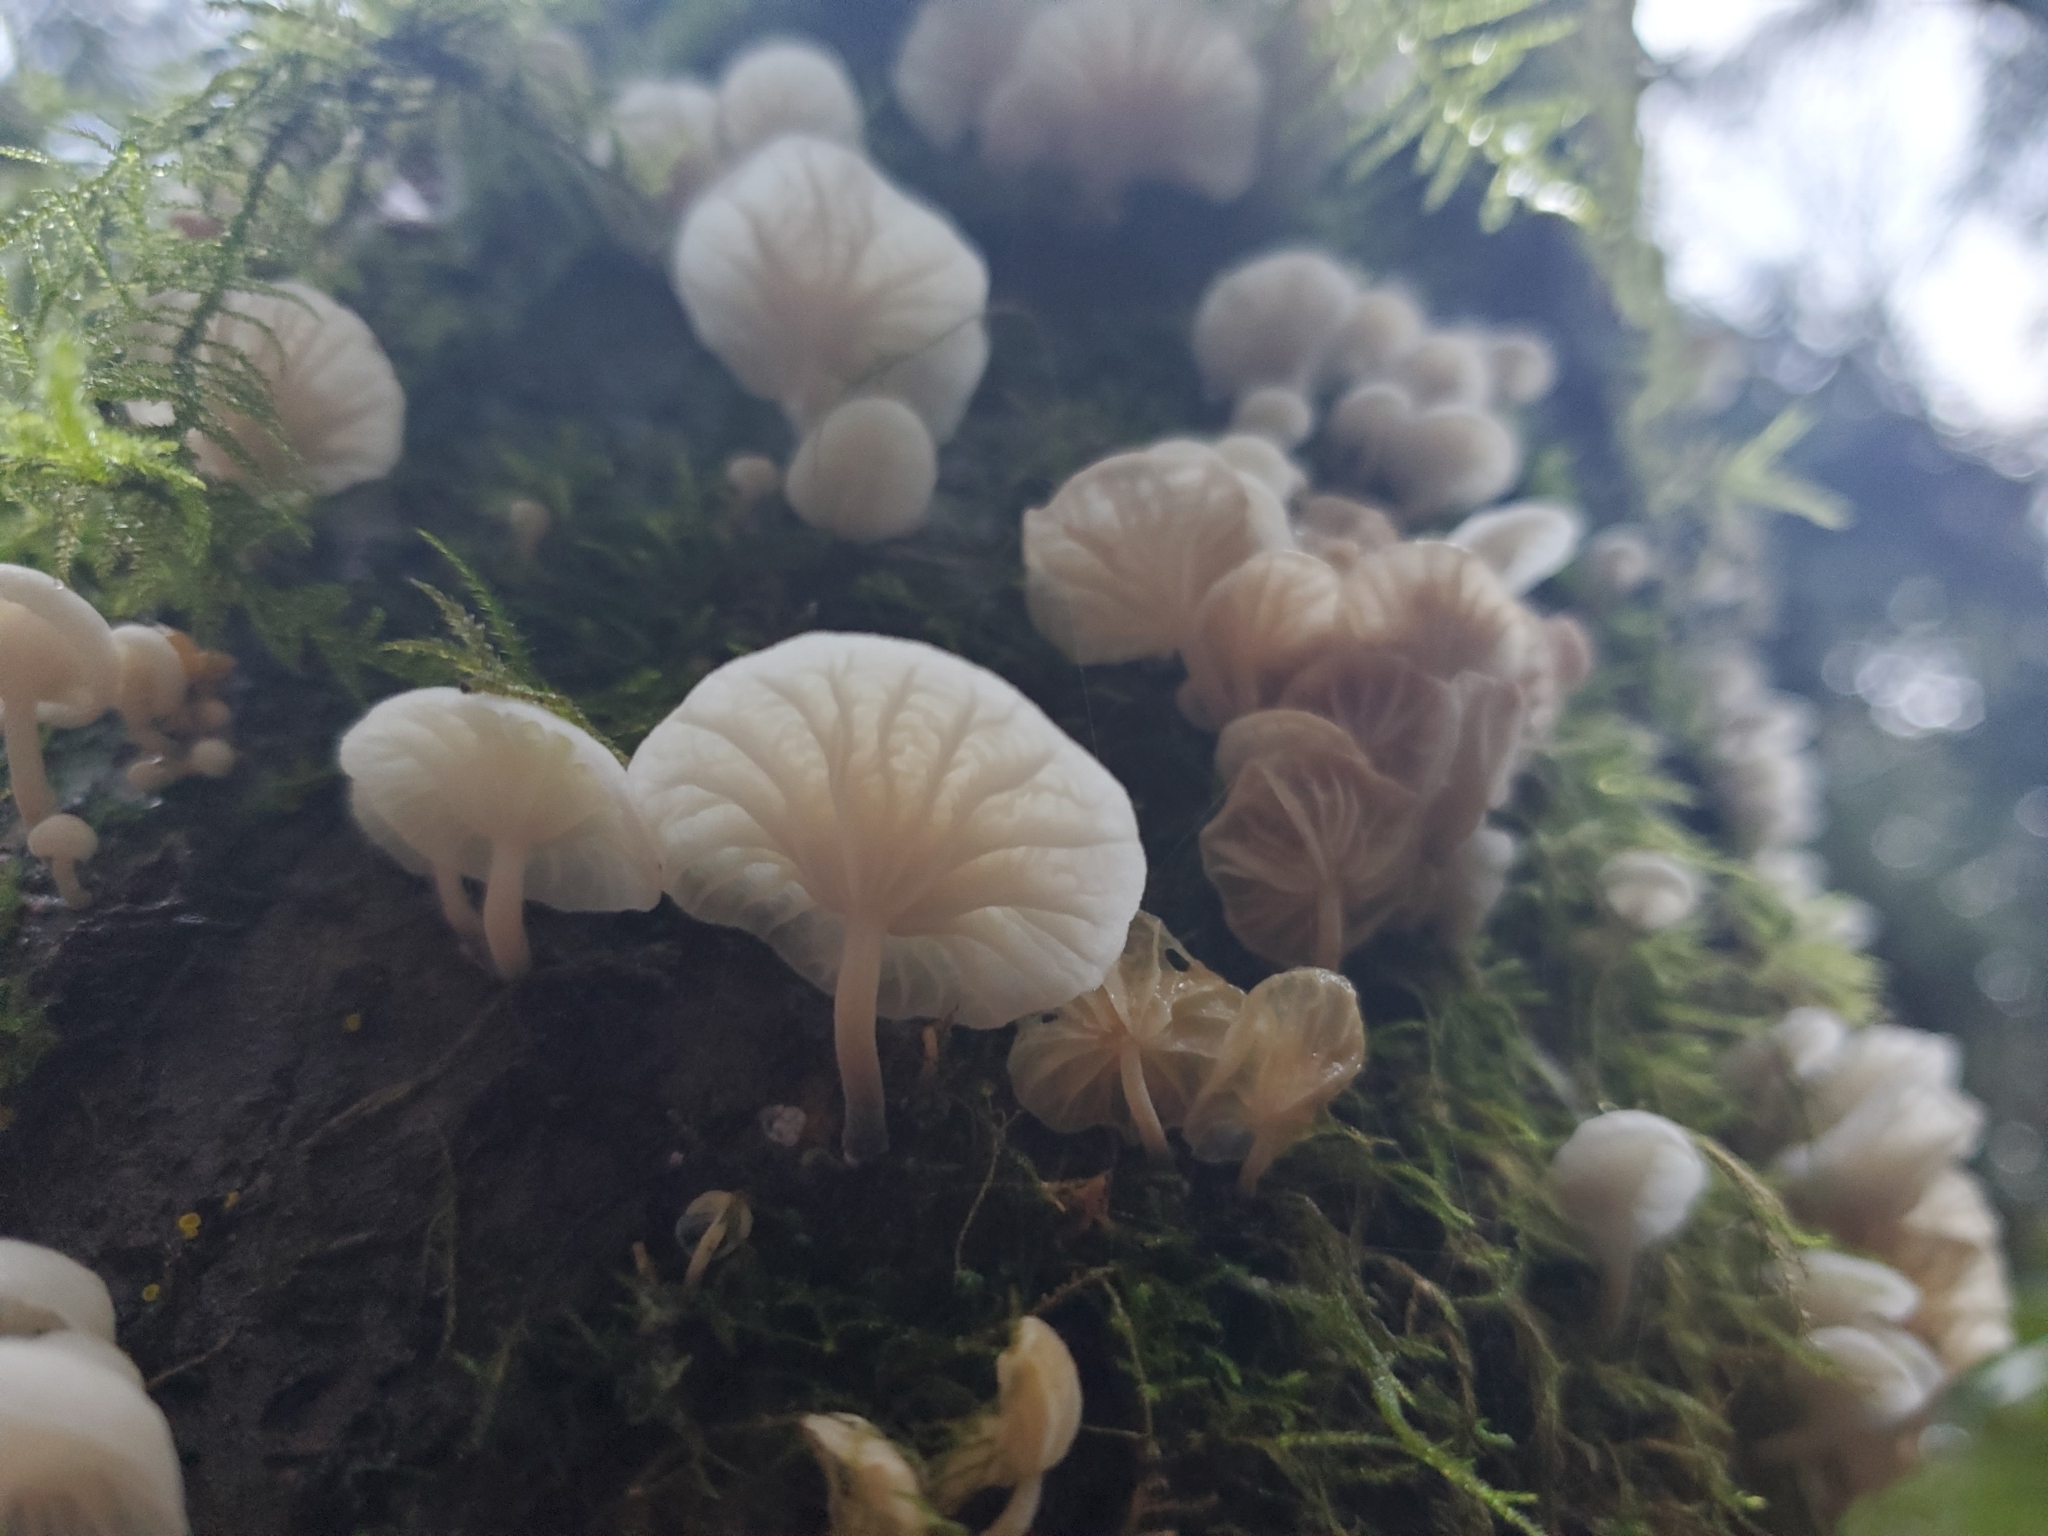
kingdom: Fungi
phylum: Basidiomycota
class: Agaricomycetes
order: Agaricales
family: Omphalotaceae
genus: Marasmiellus
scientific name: Marasmiellus candidus
